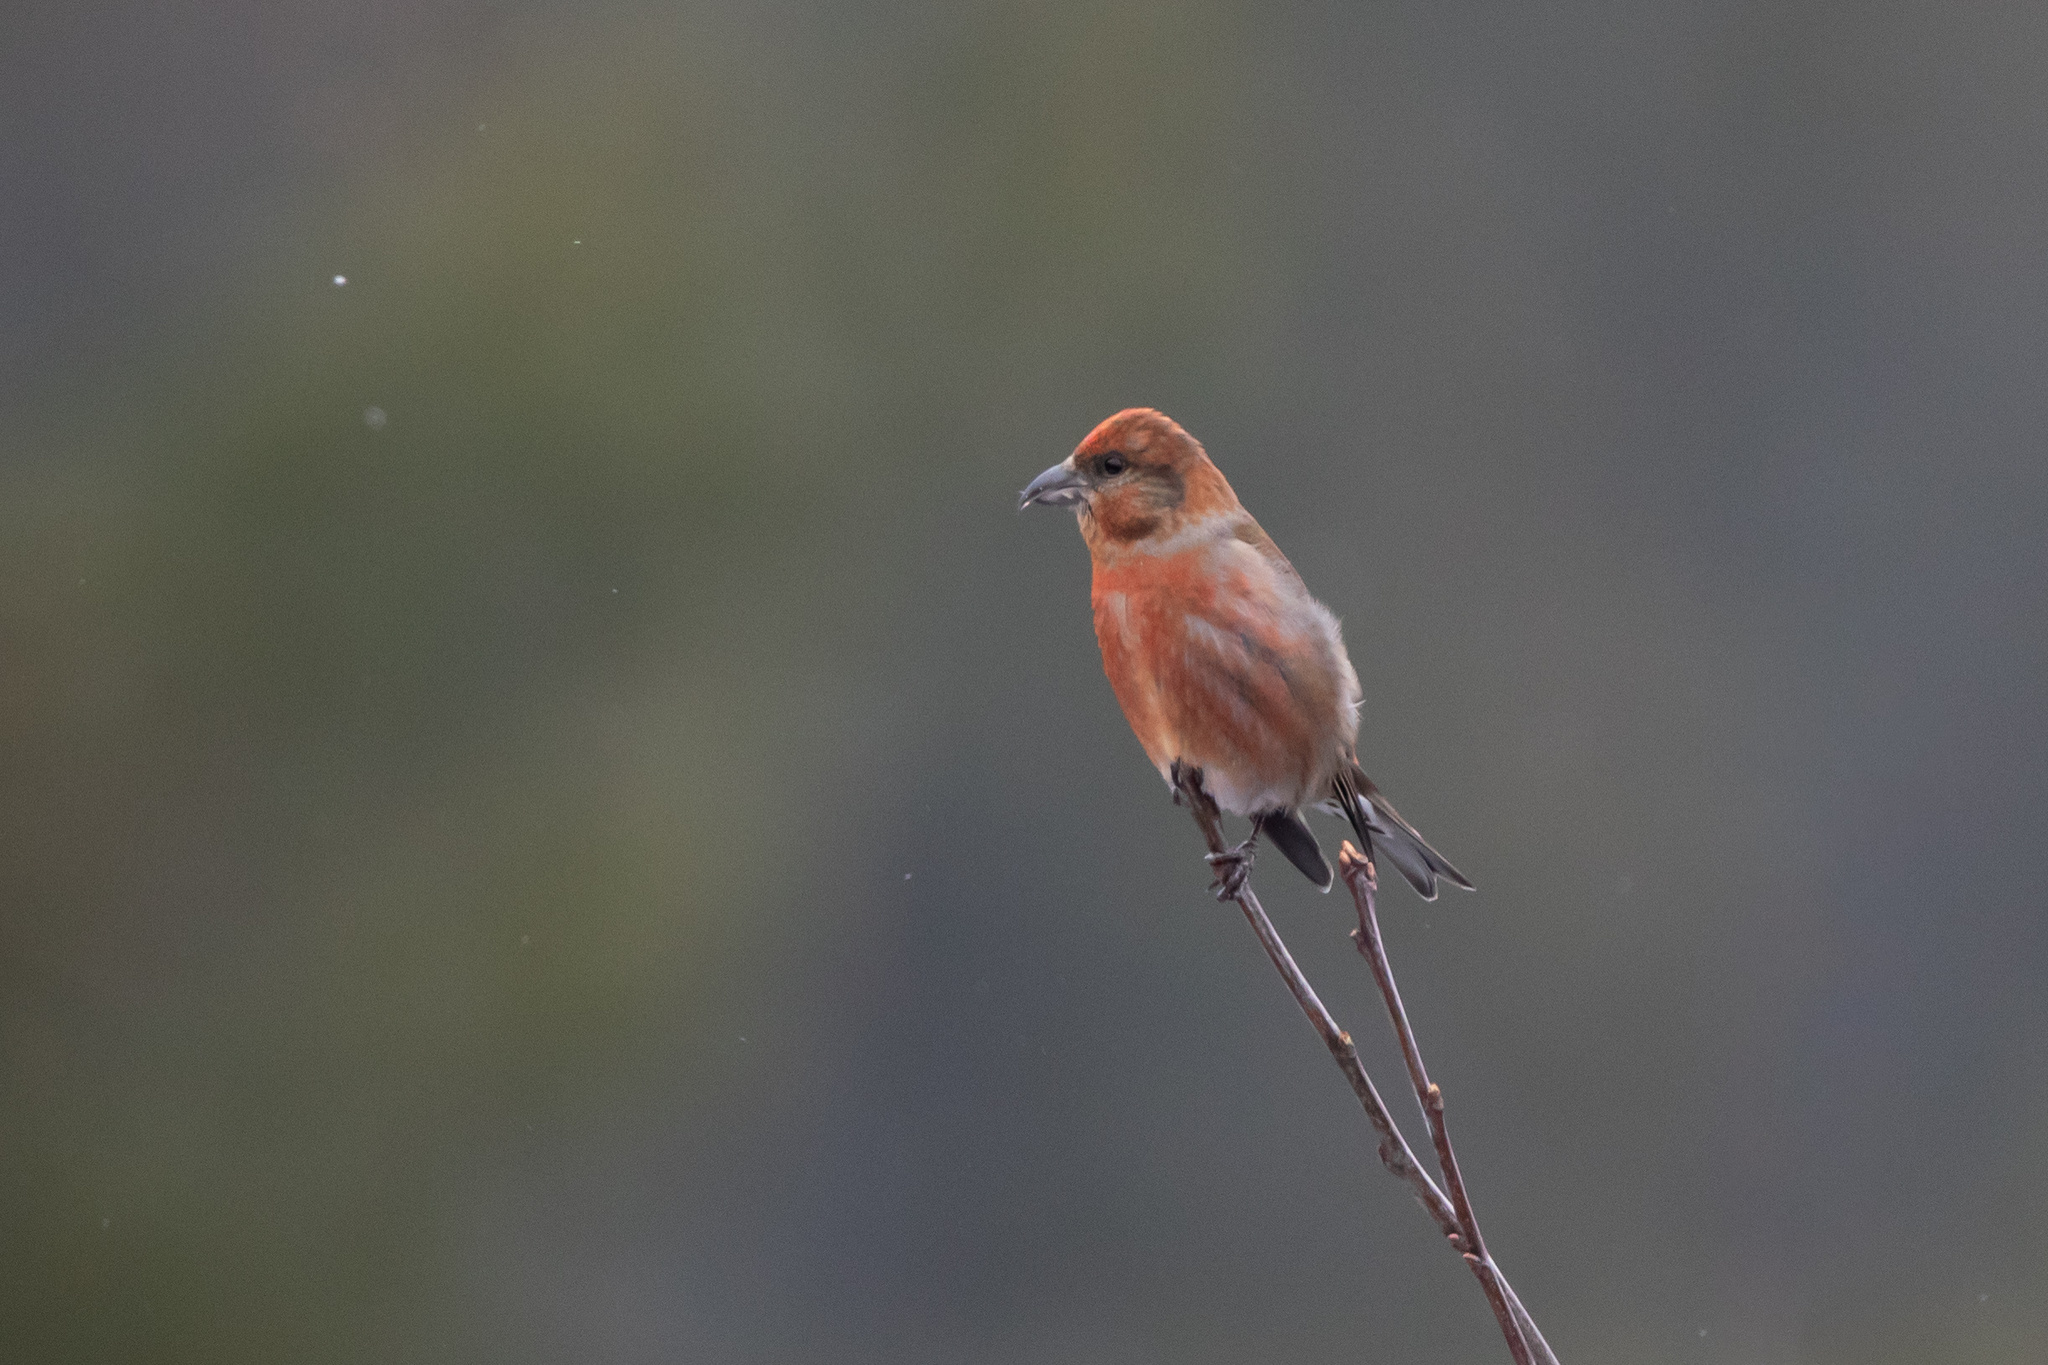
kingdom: Animalia
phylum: Chordata
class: Aves
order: Passeriformes
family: Fringillidae
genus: Loxia
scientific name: Loxia curvirostra
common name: Red crossbill
